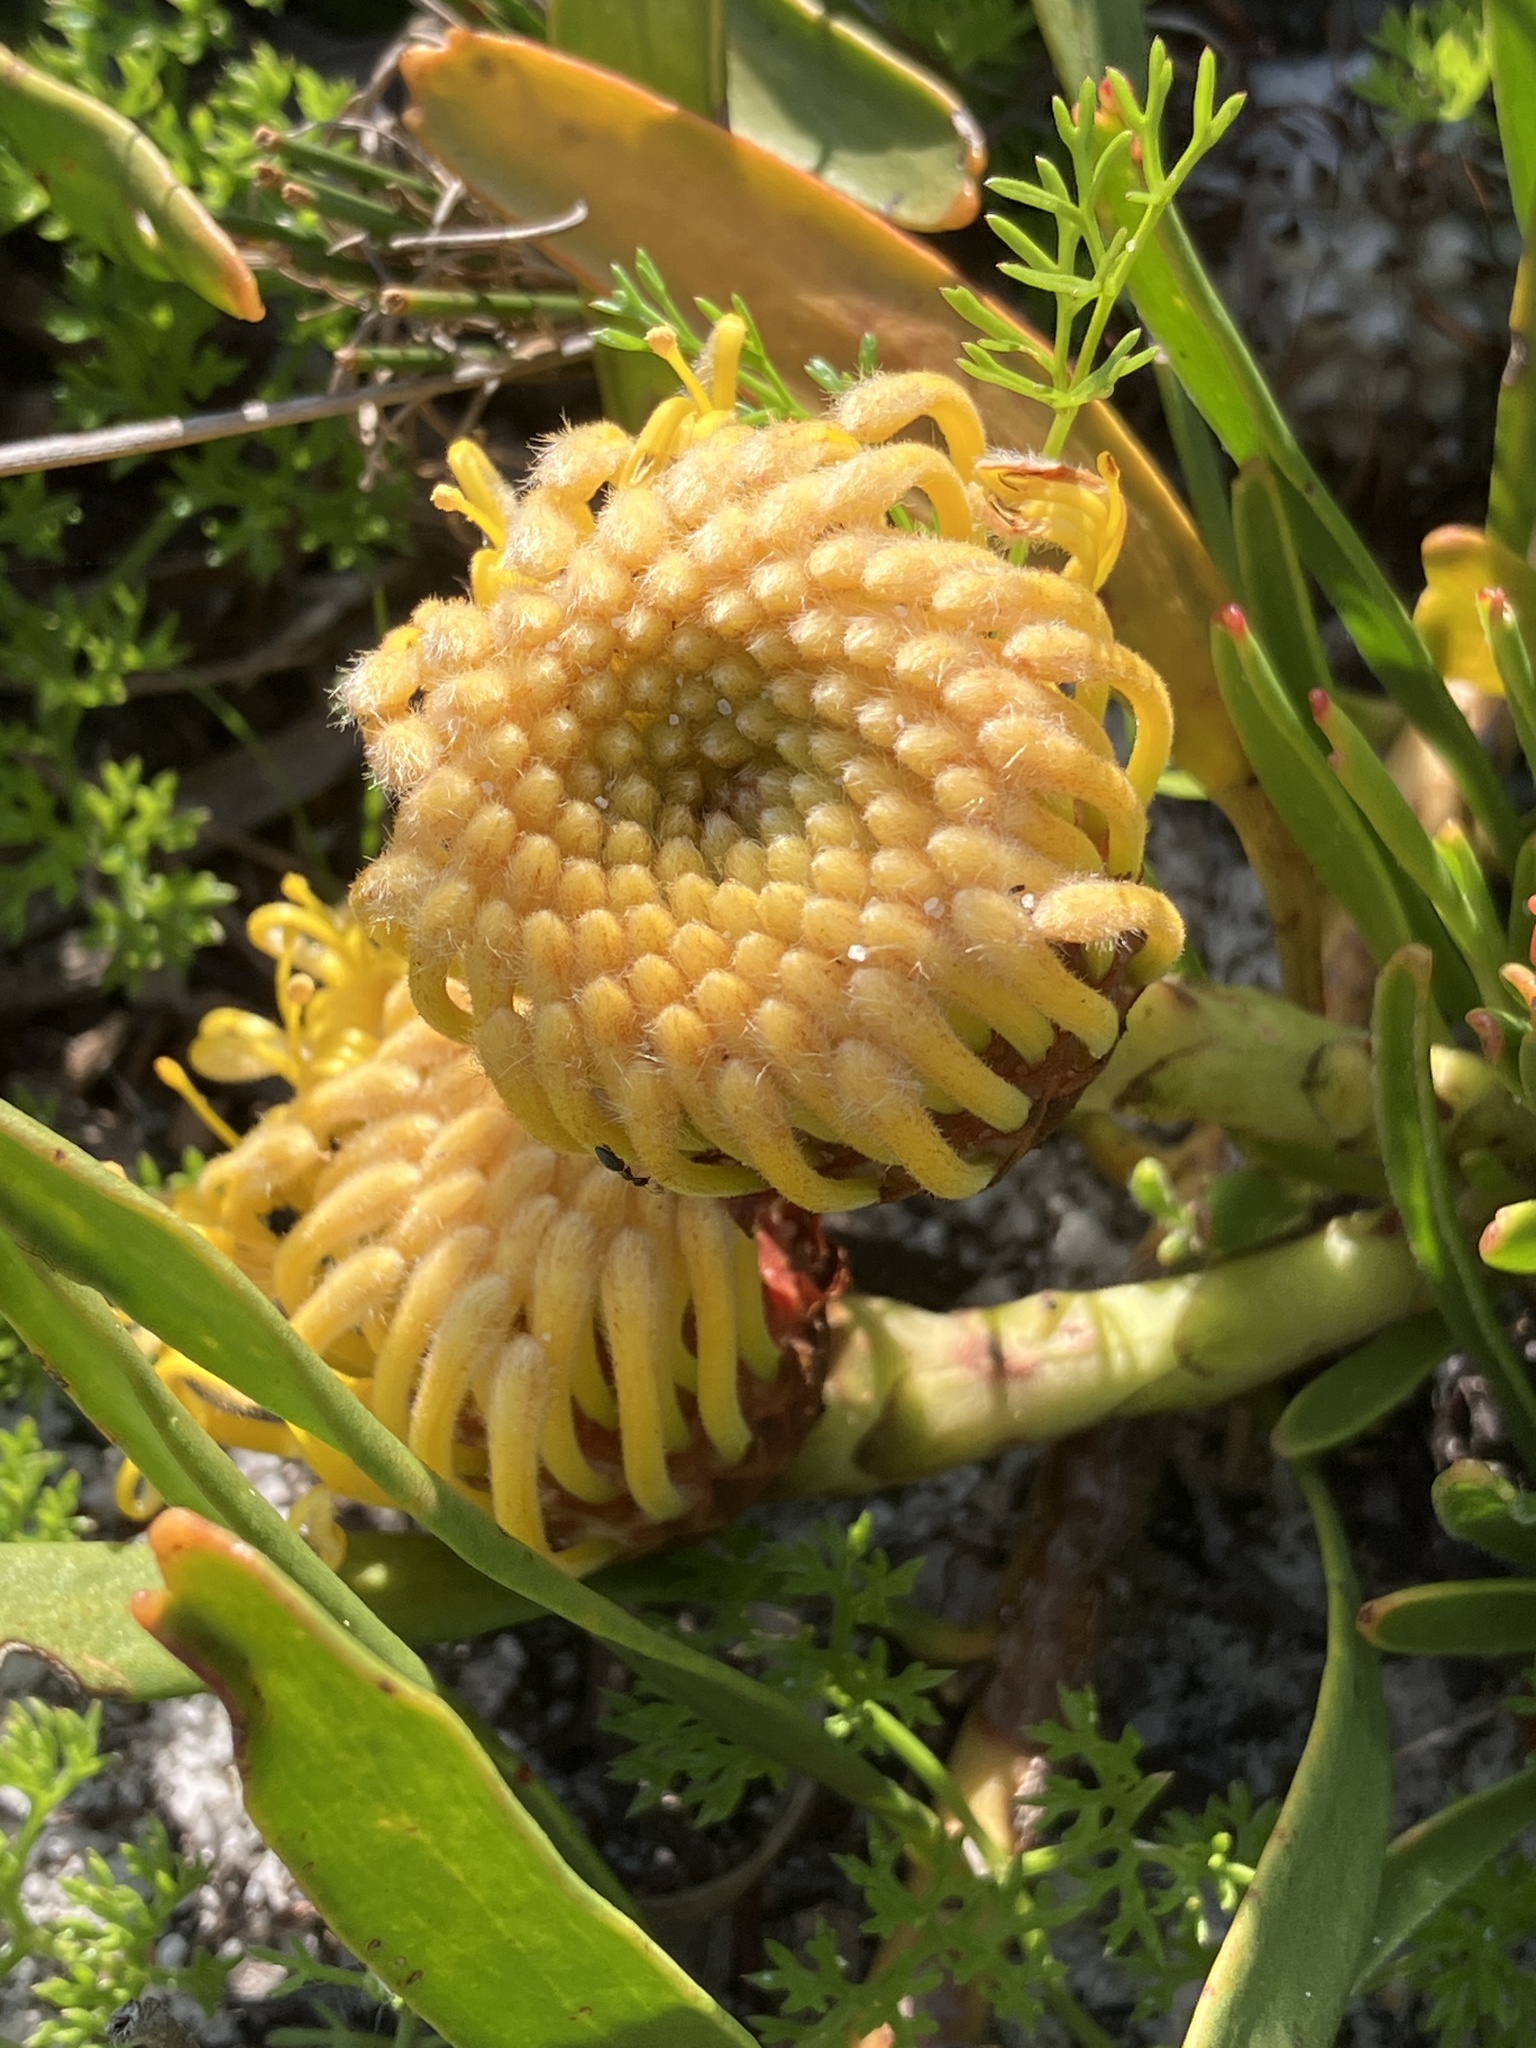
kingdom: Plantae
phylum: Tracheophyta
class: Magnoliopsida
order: Proteales
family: Proteaceae
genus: Leucospermum
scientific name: Leucospermum hypophyllocarpodendron
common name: Snakestem pincushion
